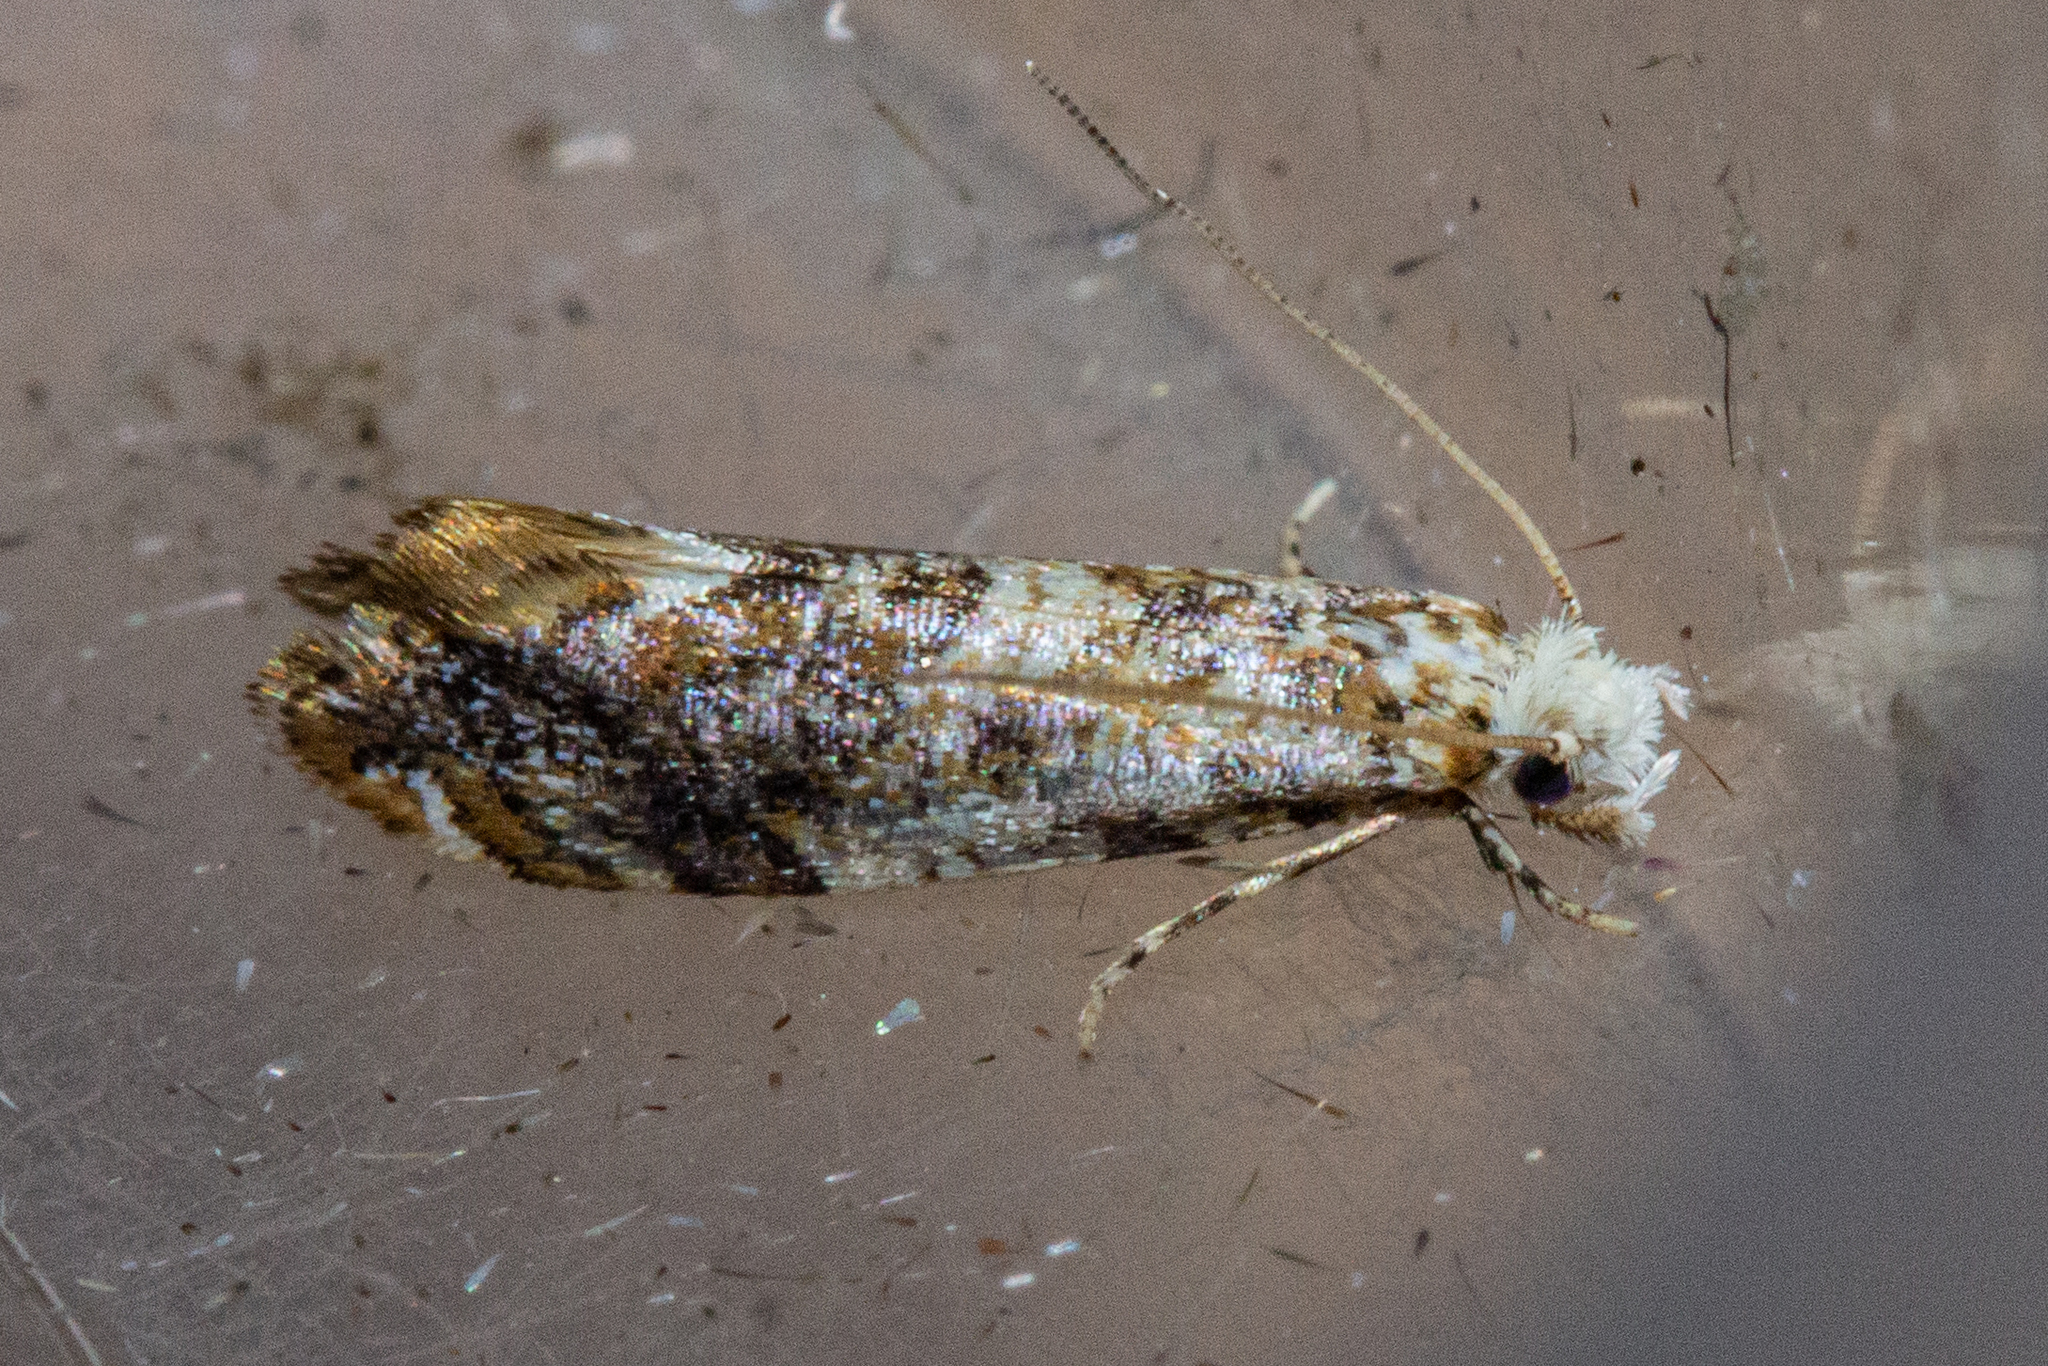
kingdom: Animalia
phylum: Arthropoda
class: Insecta
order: Lepidoptera
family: Tineidae
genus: Eschatotypa
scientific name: Eschatotypa derogatella
